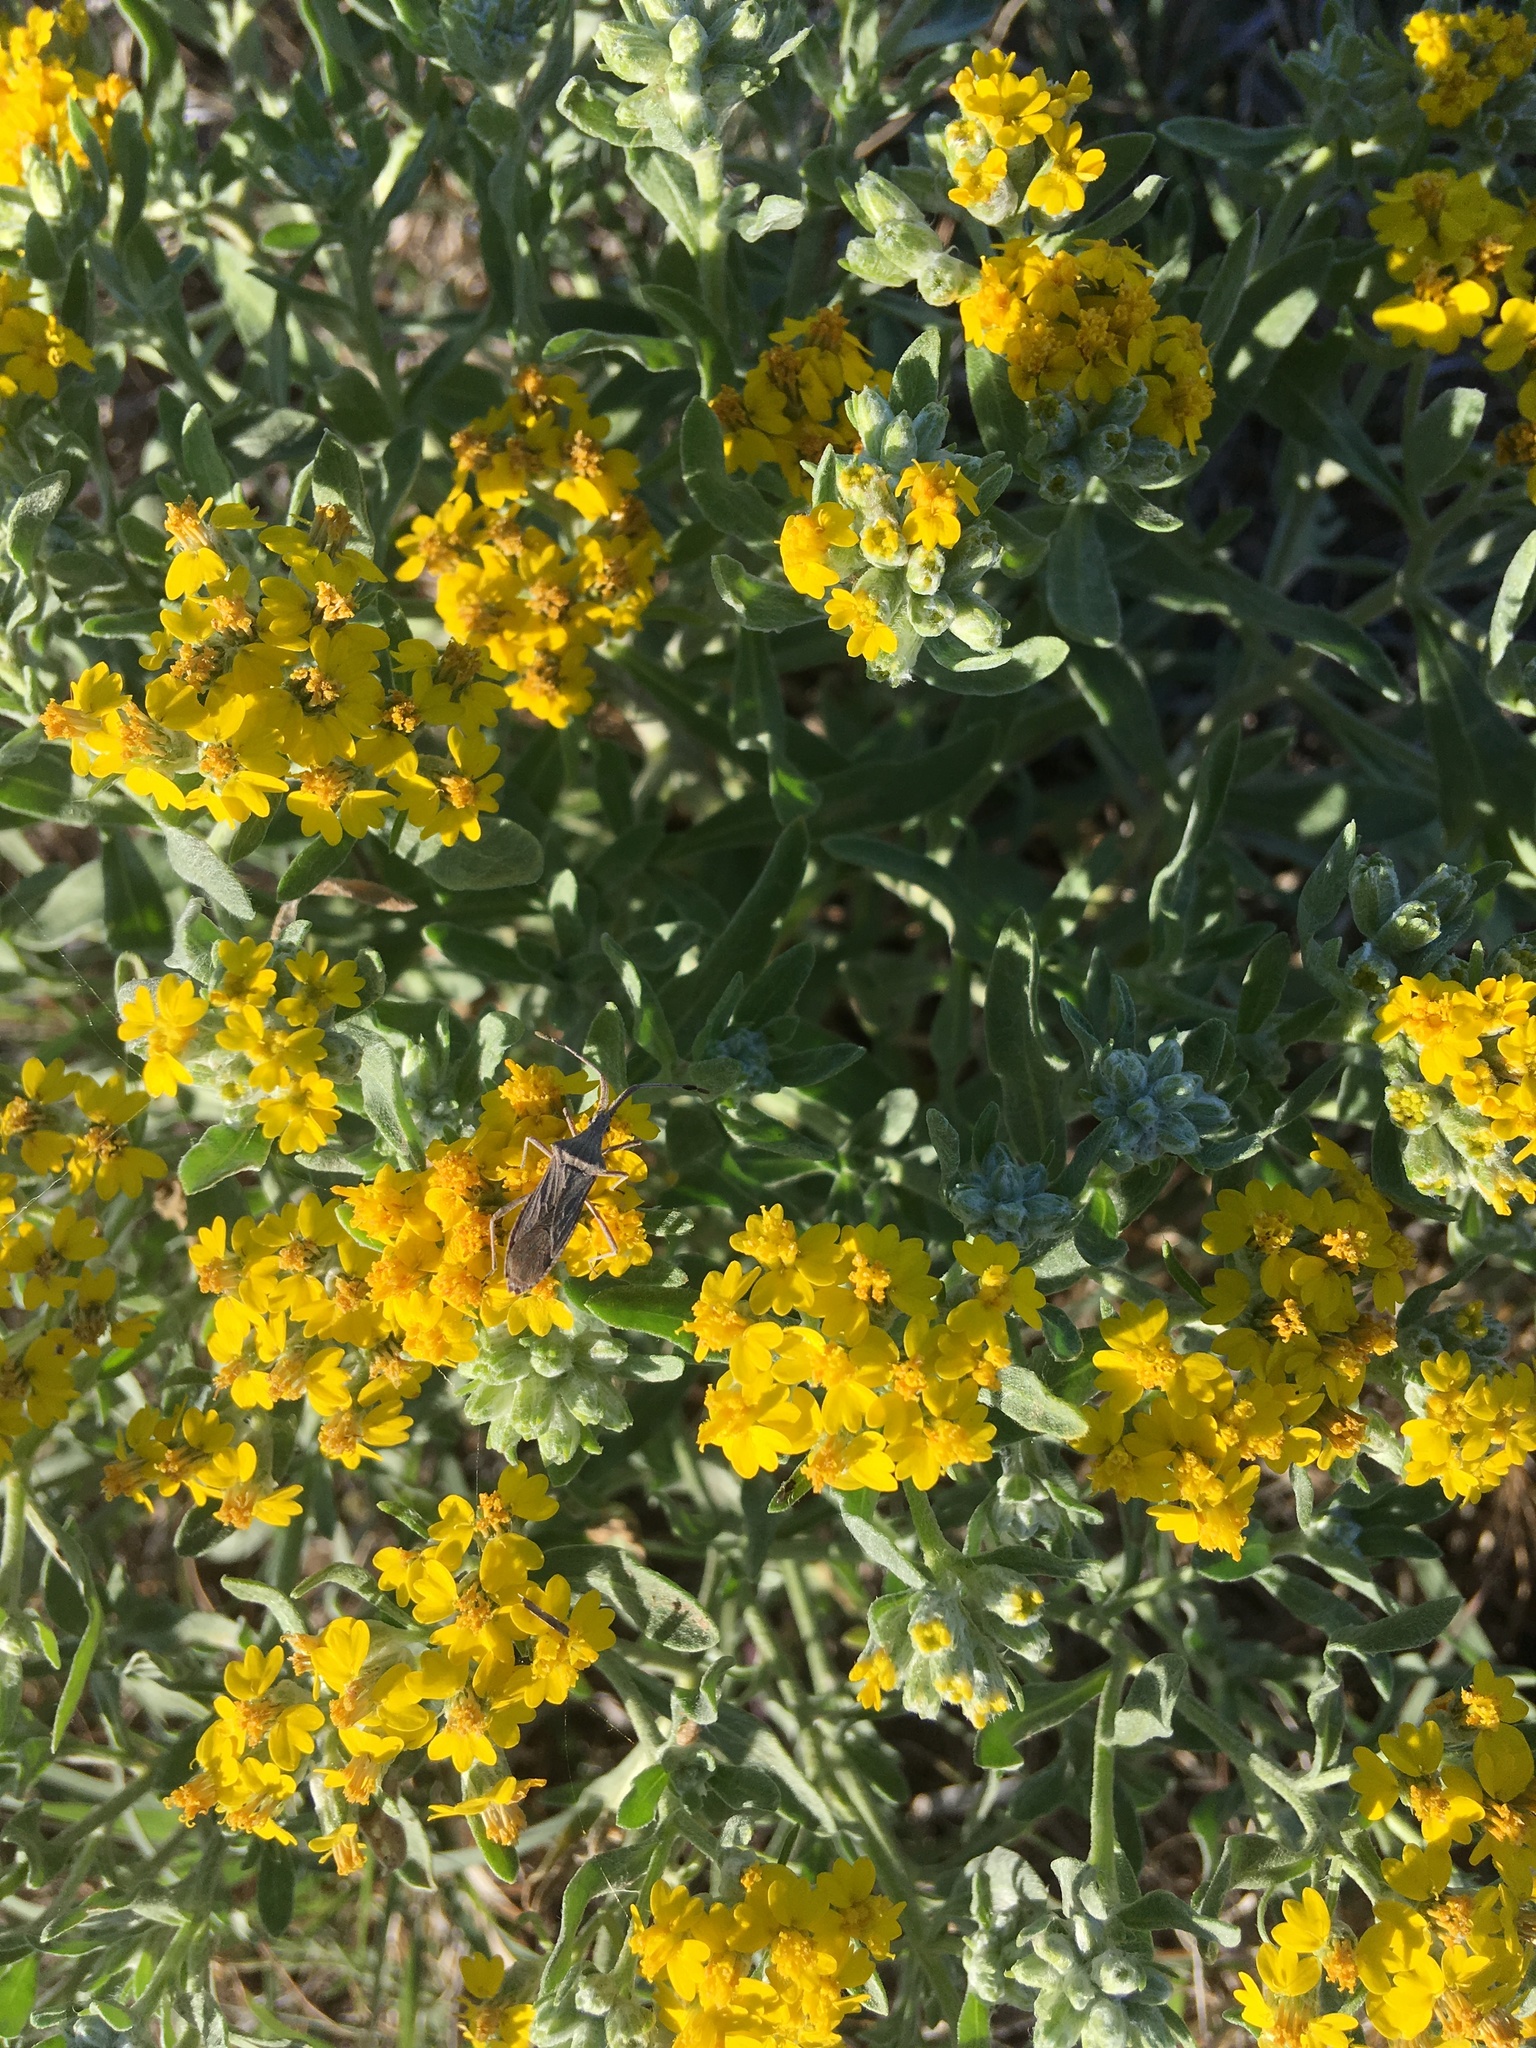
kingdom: Plantae
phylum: Tracheophyta
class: Magnoliopsida
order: Asterales
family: Asteraceae
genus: Psilostrophe
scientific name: Psilostrophe villosa
